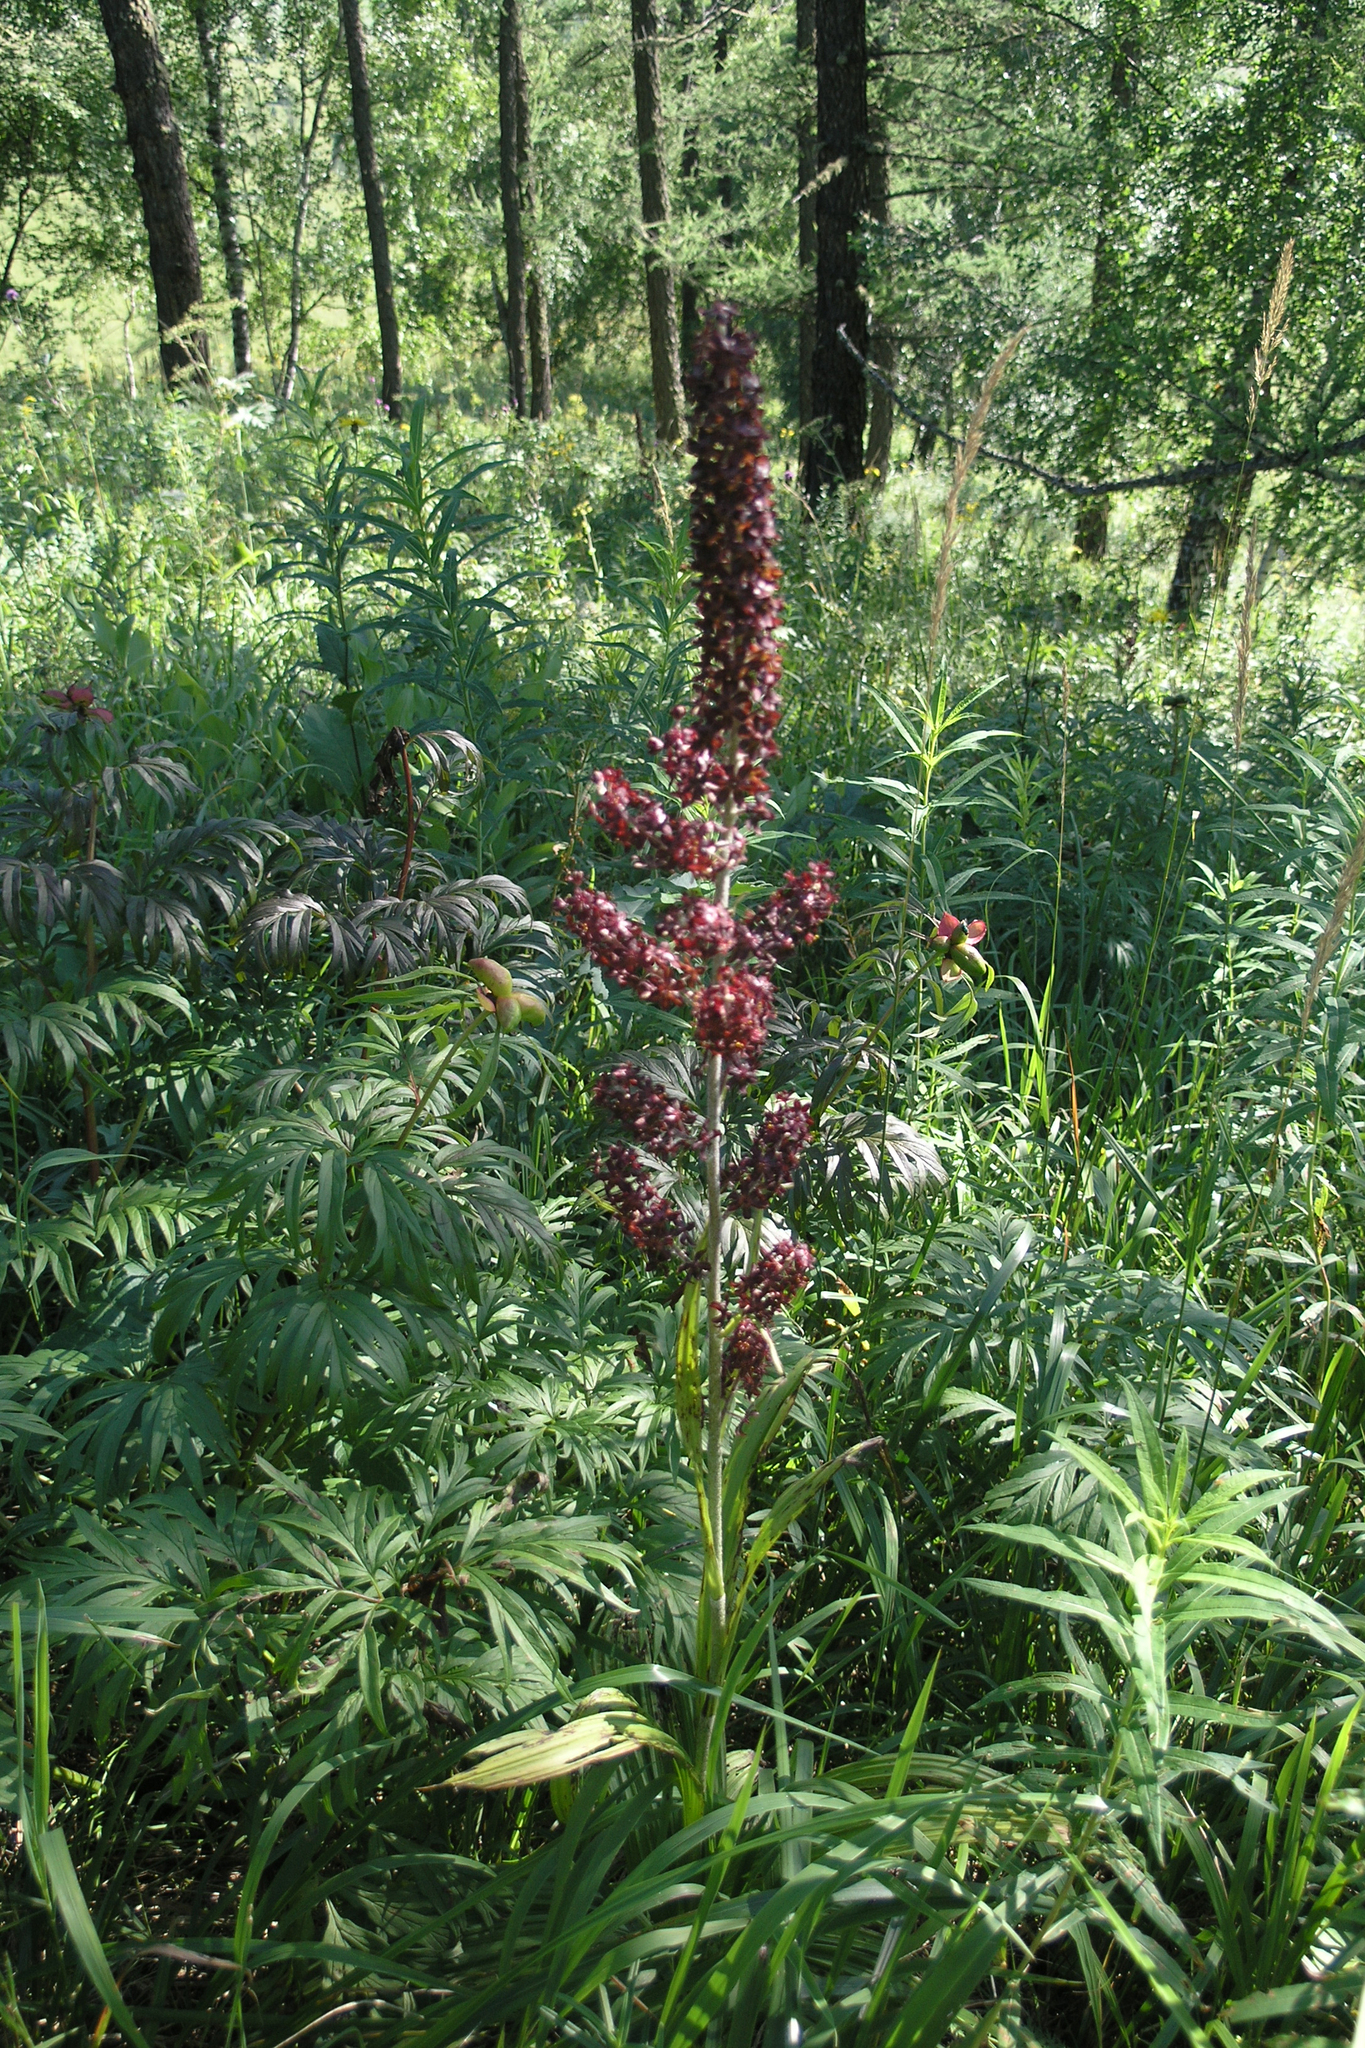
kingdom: Plantae
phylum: Tracheophyta
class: Liliopsida
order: Liliales
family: Melanthiaceae
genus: Veratrum
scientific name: Veratrum nigrum
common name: Black veratrum
